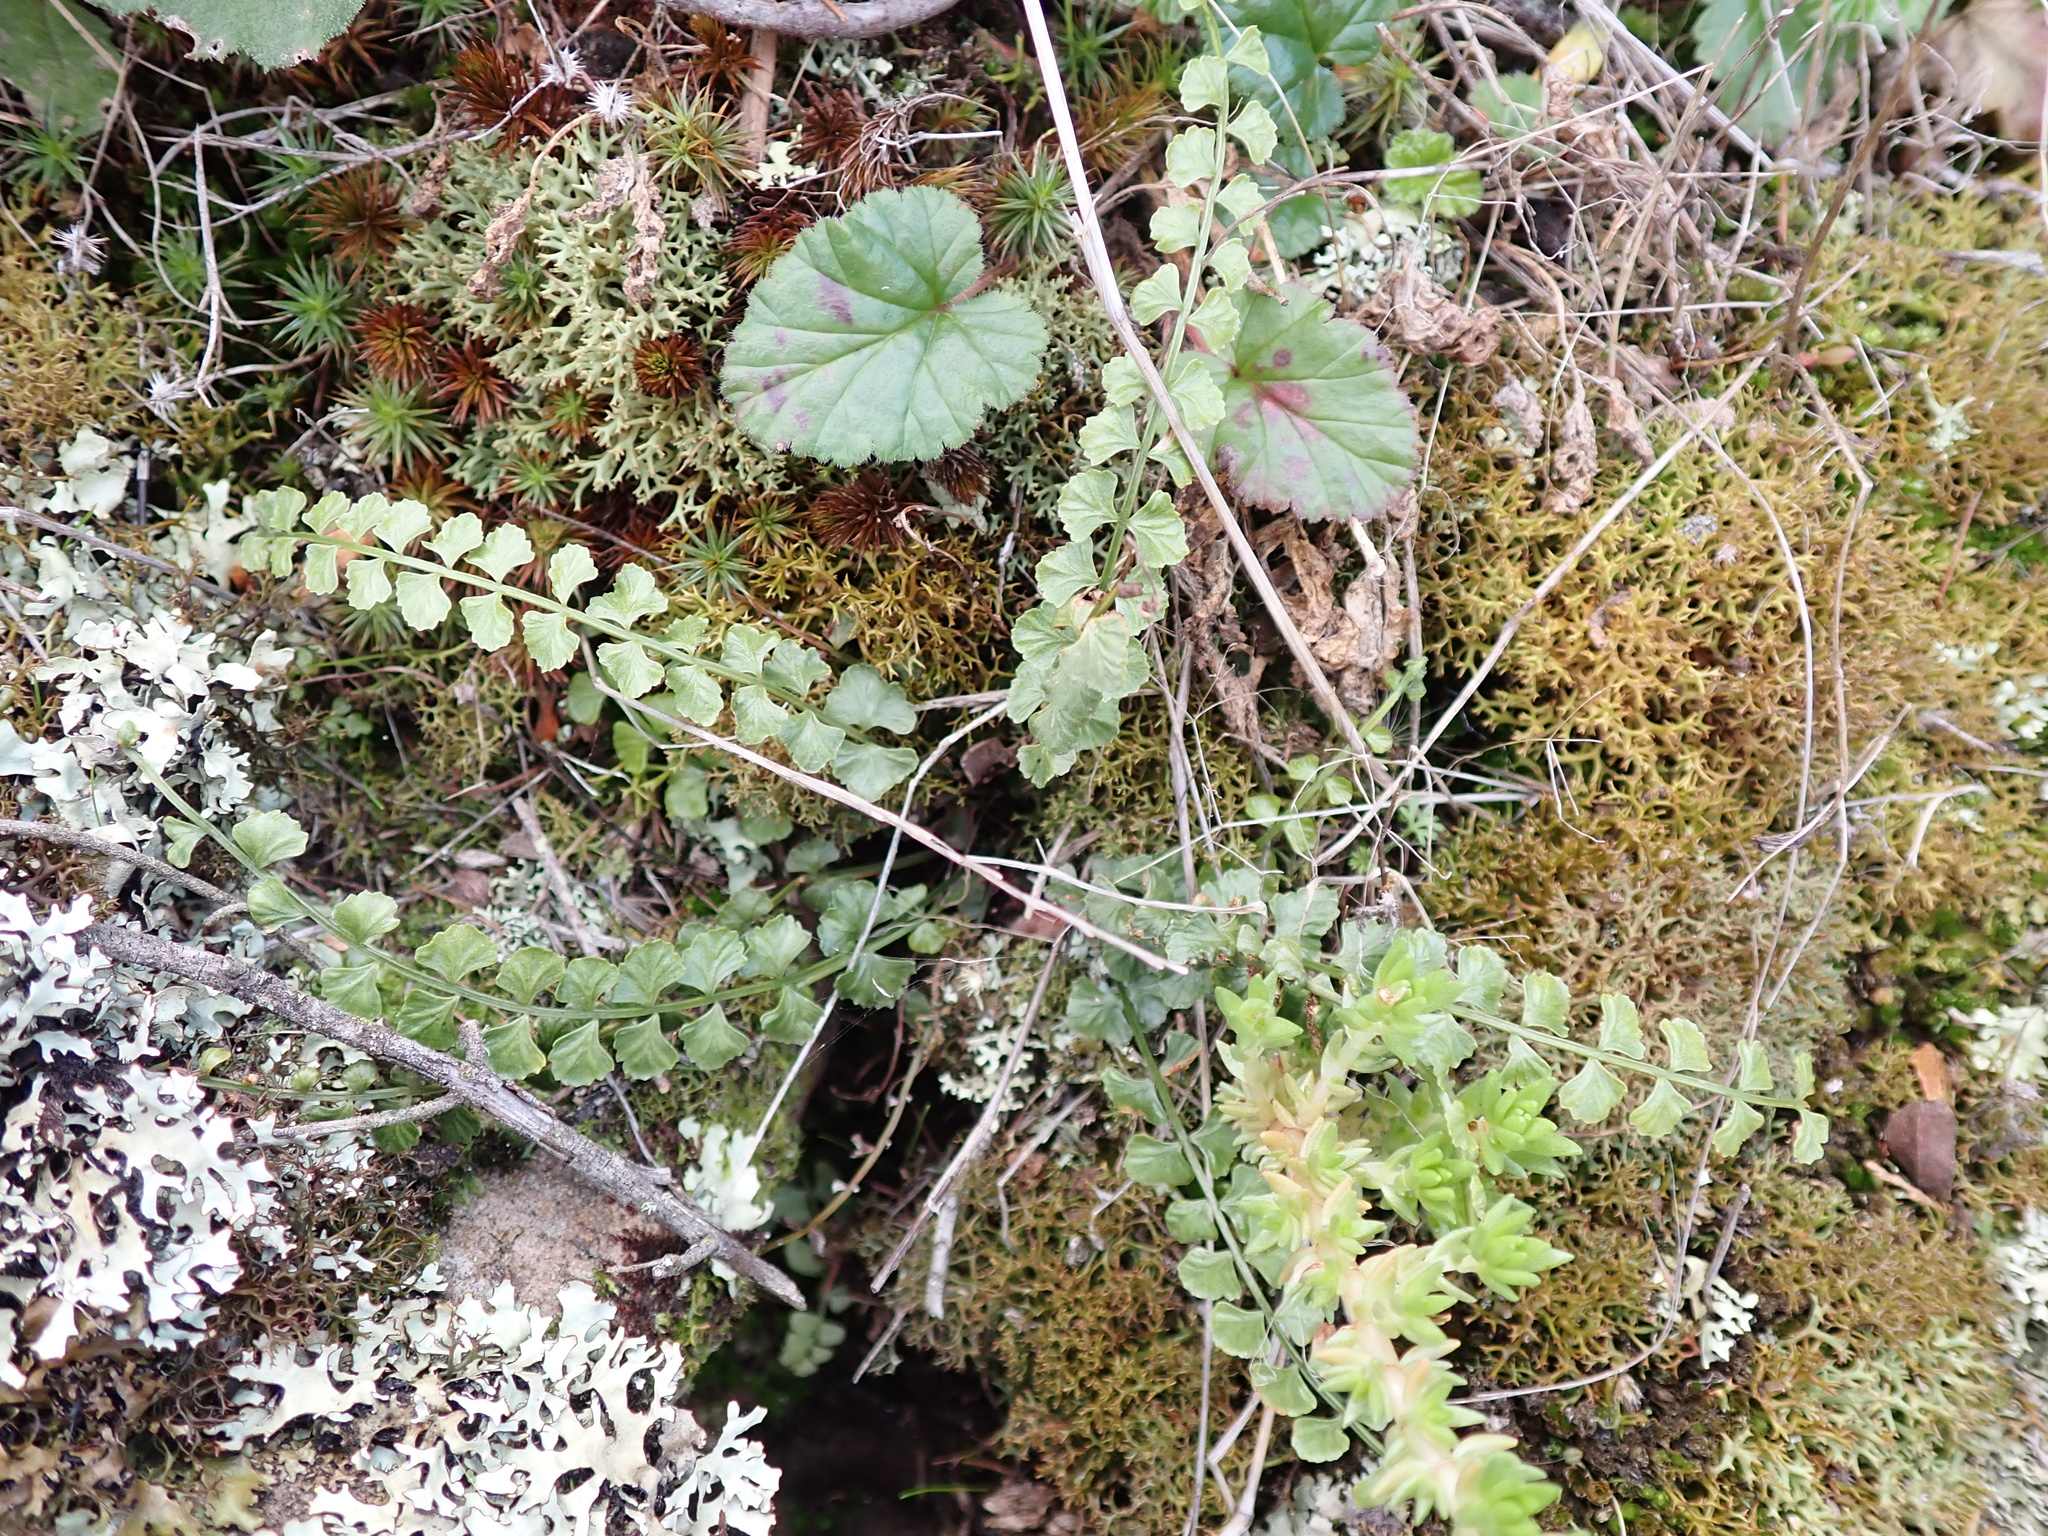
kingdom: Plantae
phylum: Tracheophyta
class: Polypodiopsida
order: Polypodiales
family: Aspleniaceae
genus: Asplenium
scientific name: Asplenium flabellifolium
